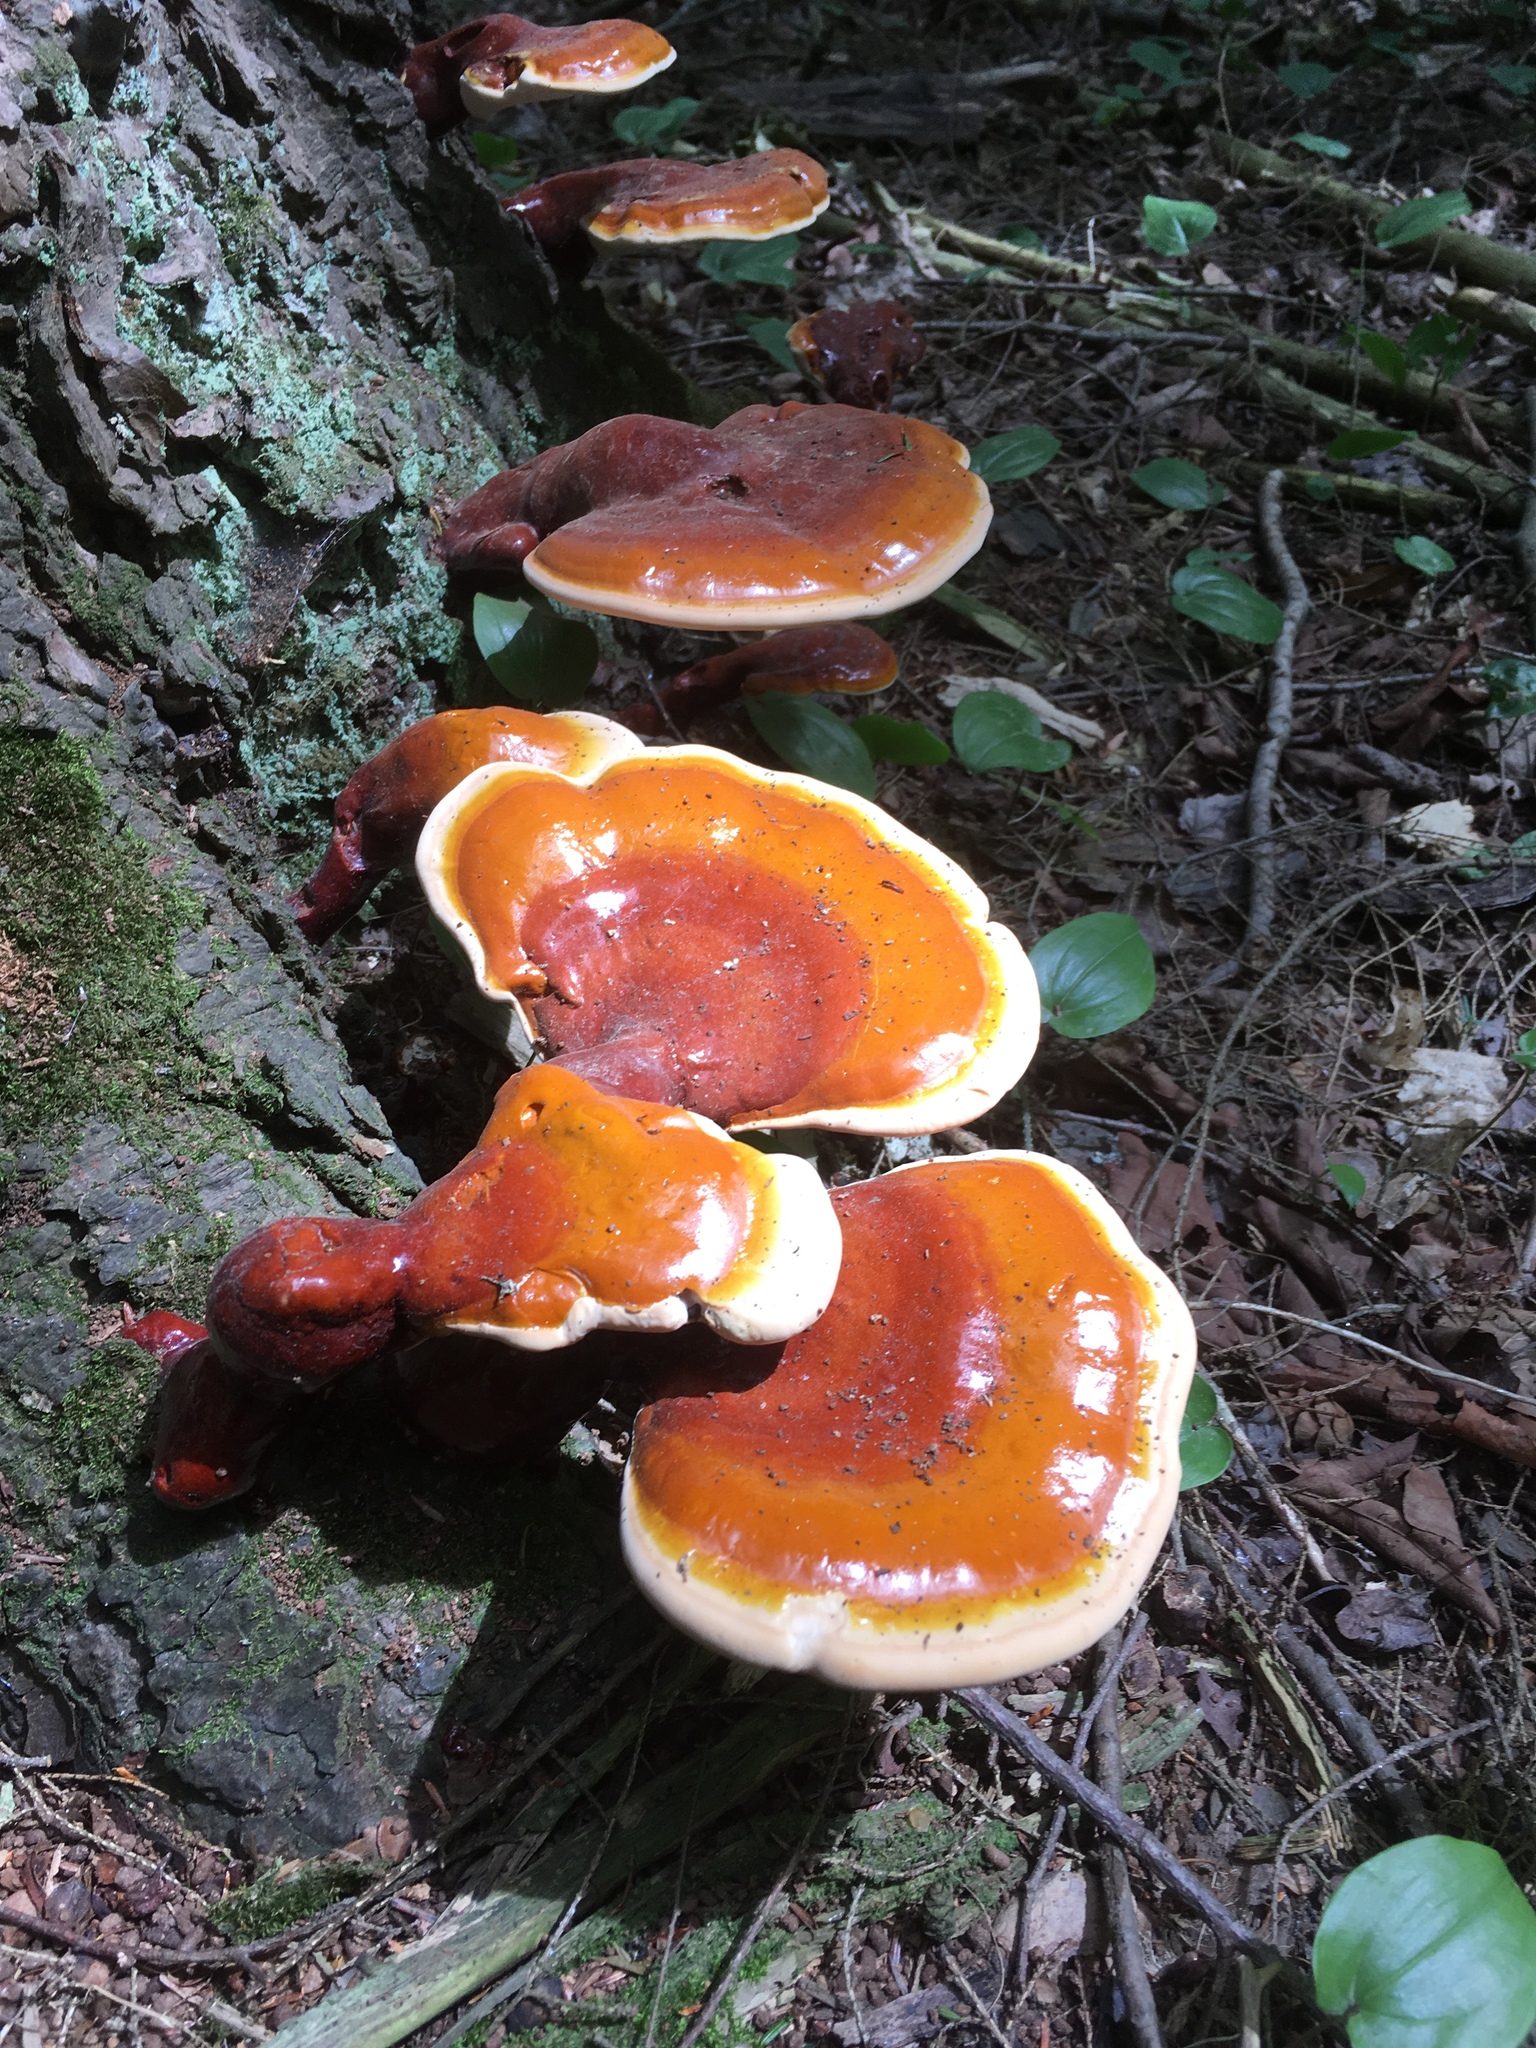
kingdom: Fungi
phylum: Basidiomycota
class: Agaricomycetes
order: Polyporales
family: Polyporaceae
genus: Ganoderma
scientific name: Ganoderma tsugae
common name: Hemlock varnish shelf
